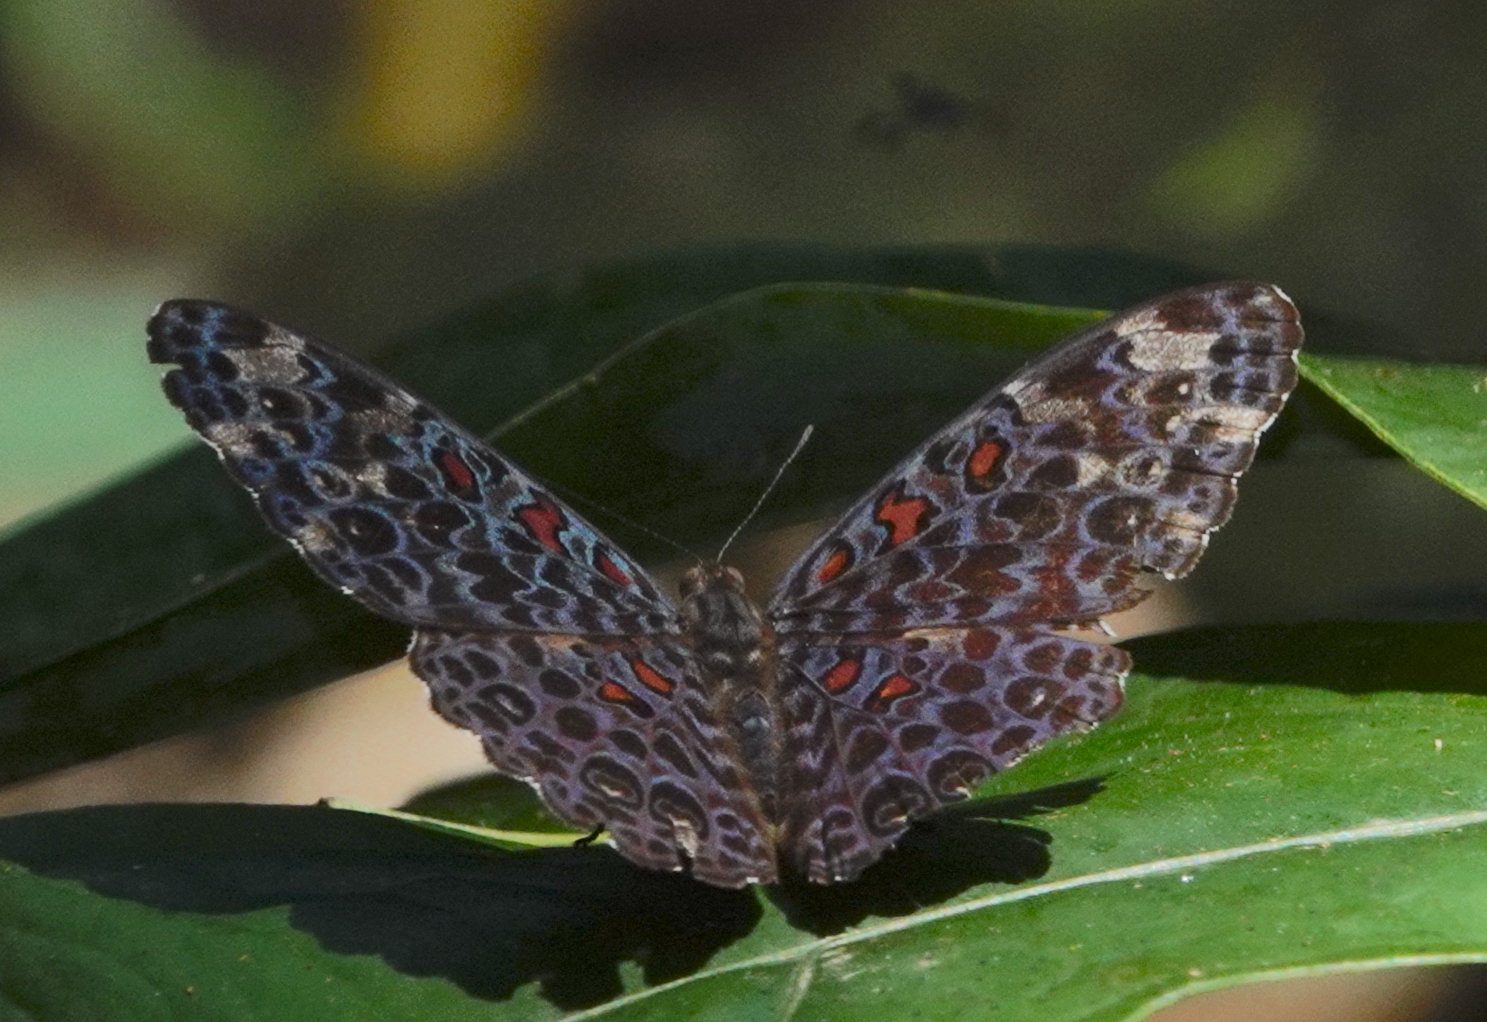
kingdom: Animalia
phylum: Arthropoda
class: Insecta
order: Lepidoptera
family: Nymphalidae
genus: Hamadryas
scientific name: Hamadryas chloe
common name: Amazon cracker
